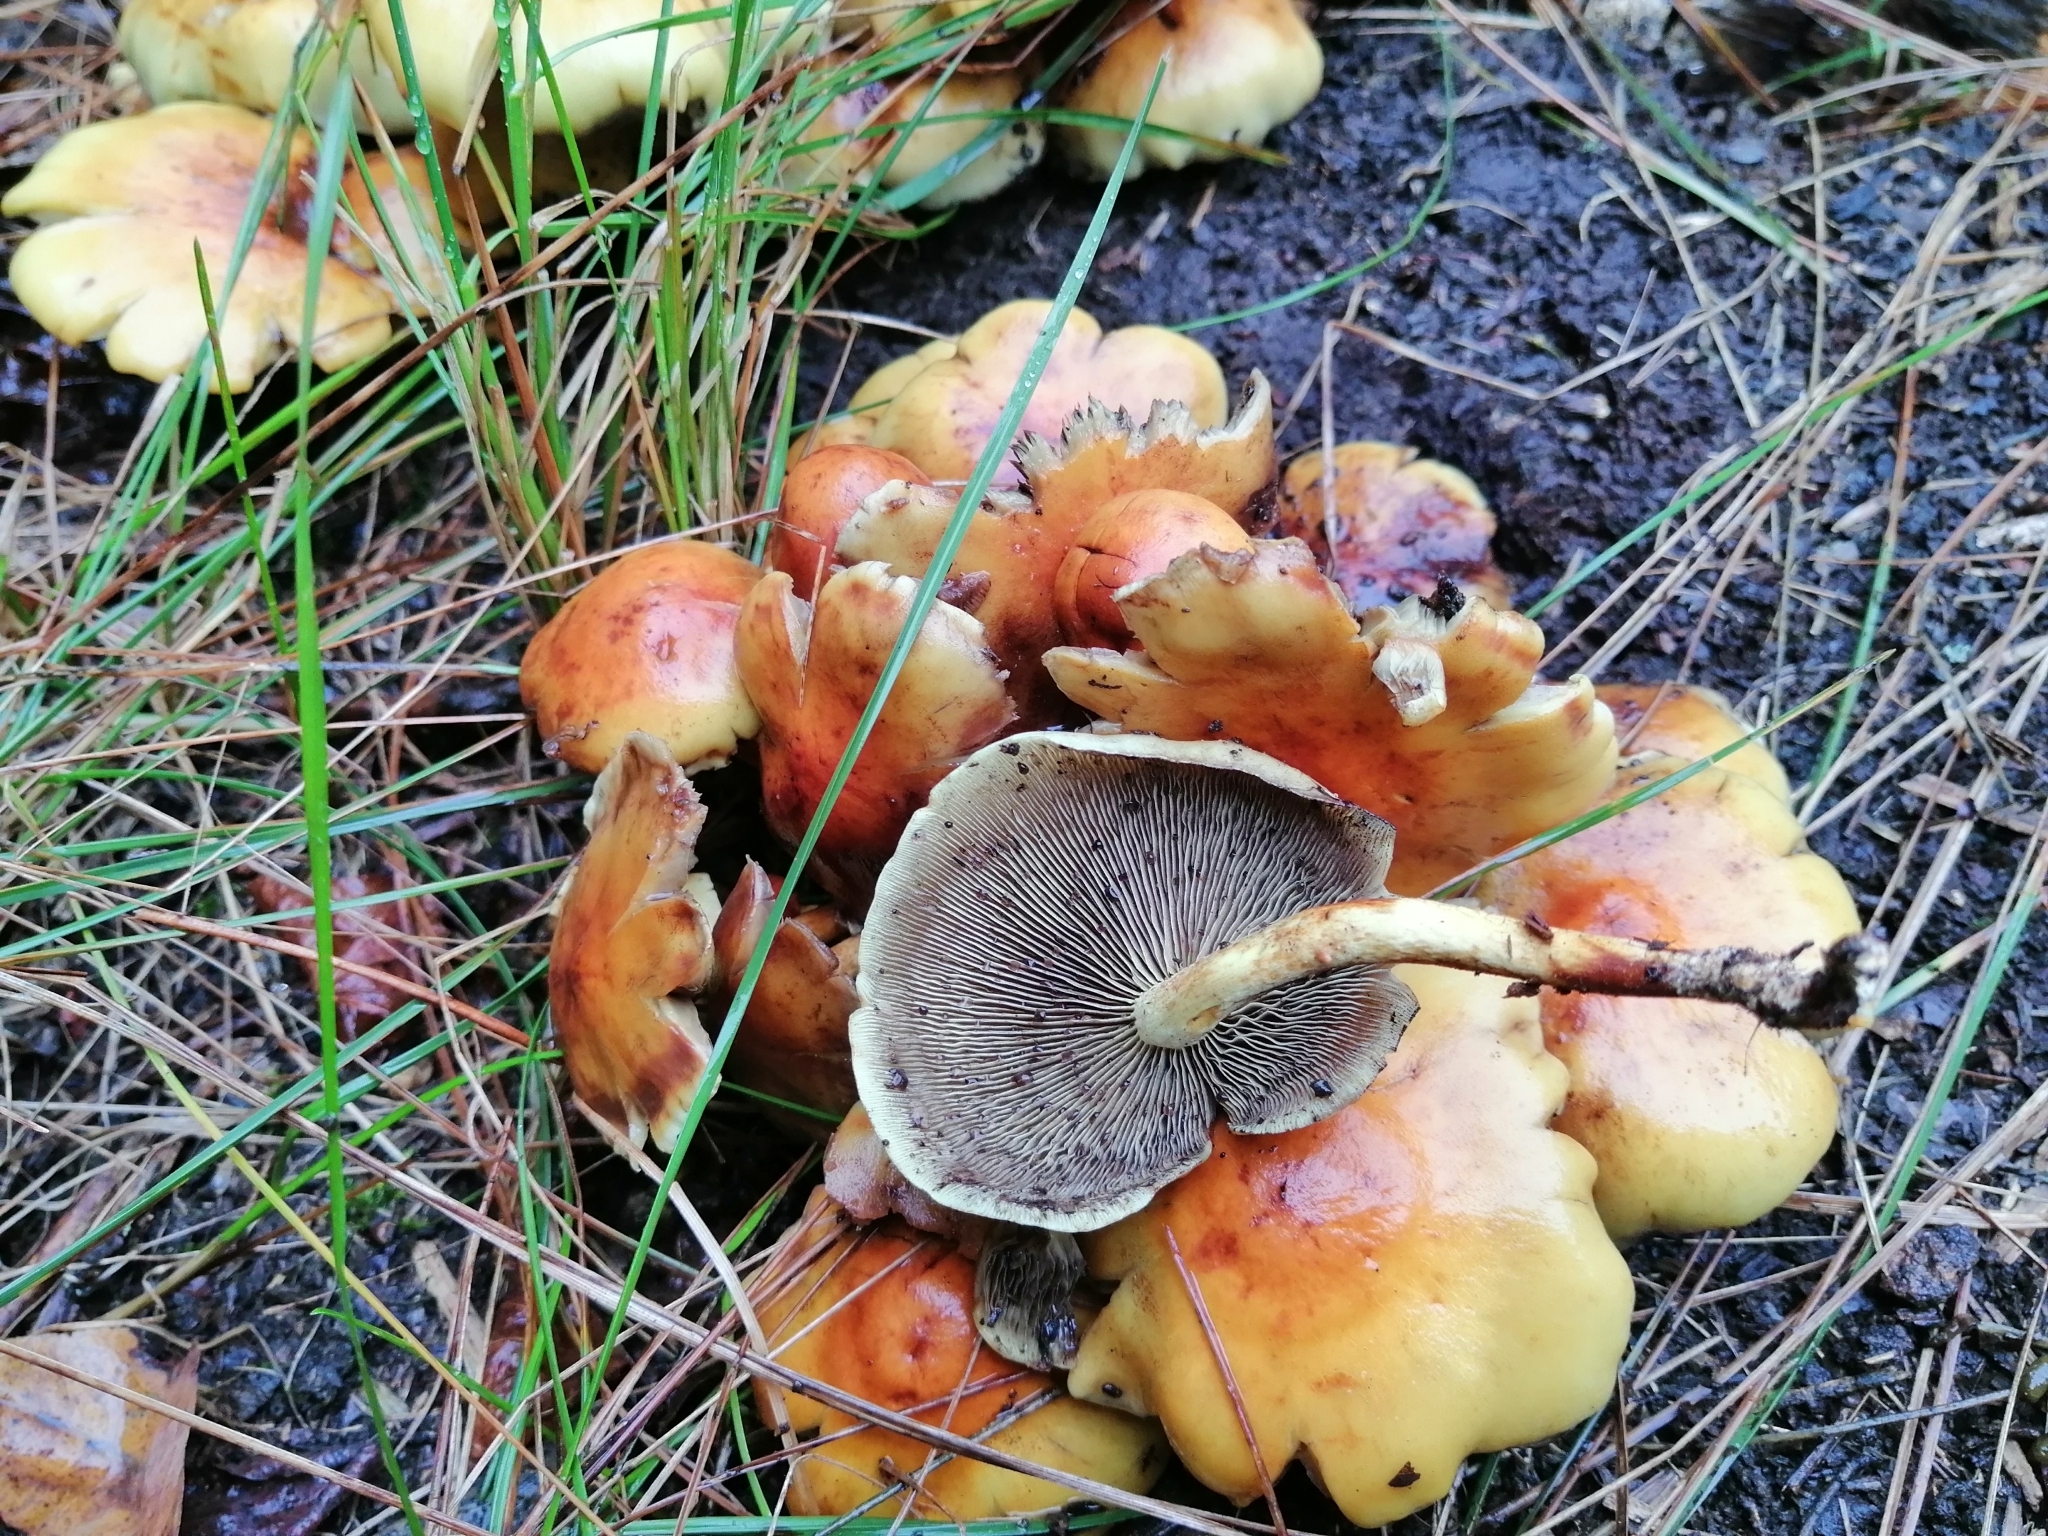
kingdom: Fungi
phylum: Basidiomycota
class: Agaricomycetes
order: Agaricales
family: Strophariaceae
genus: Hypholoma
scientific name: Hypholoma fasciculare
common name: Sulphur tuft
